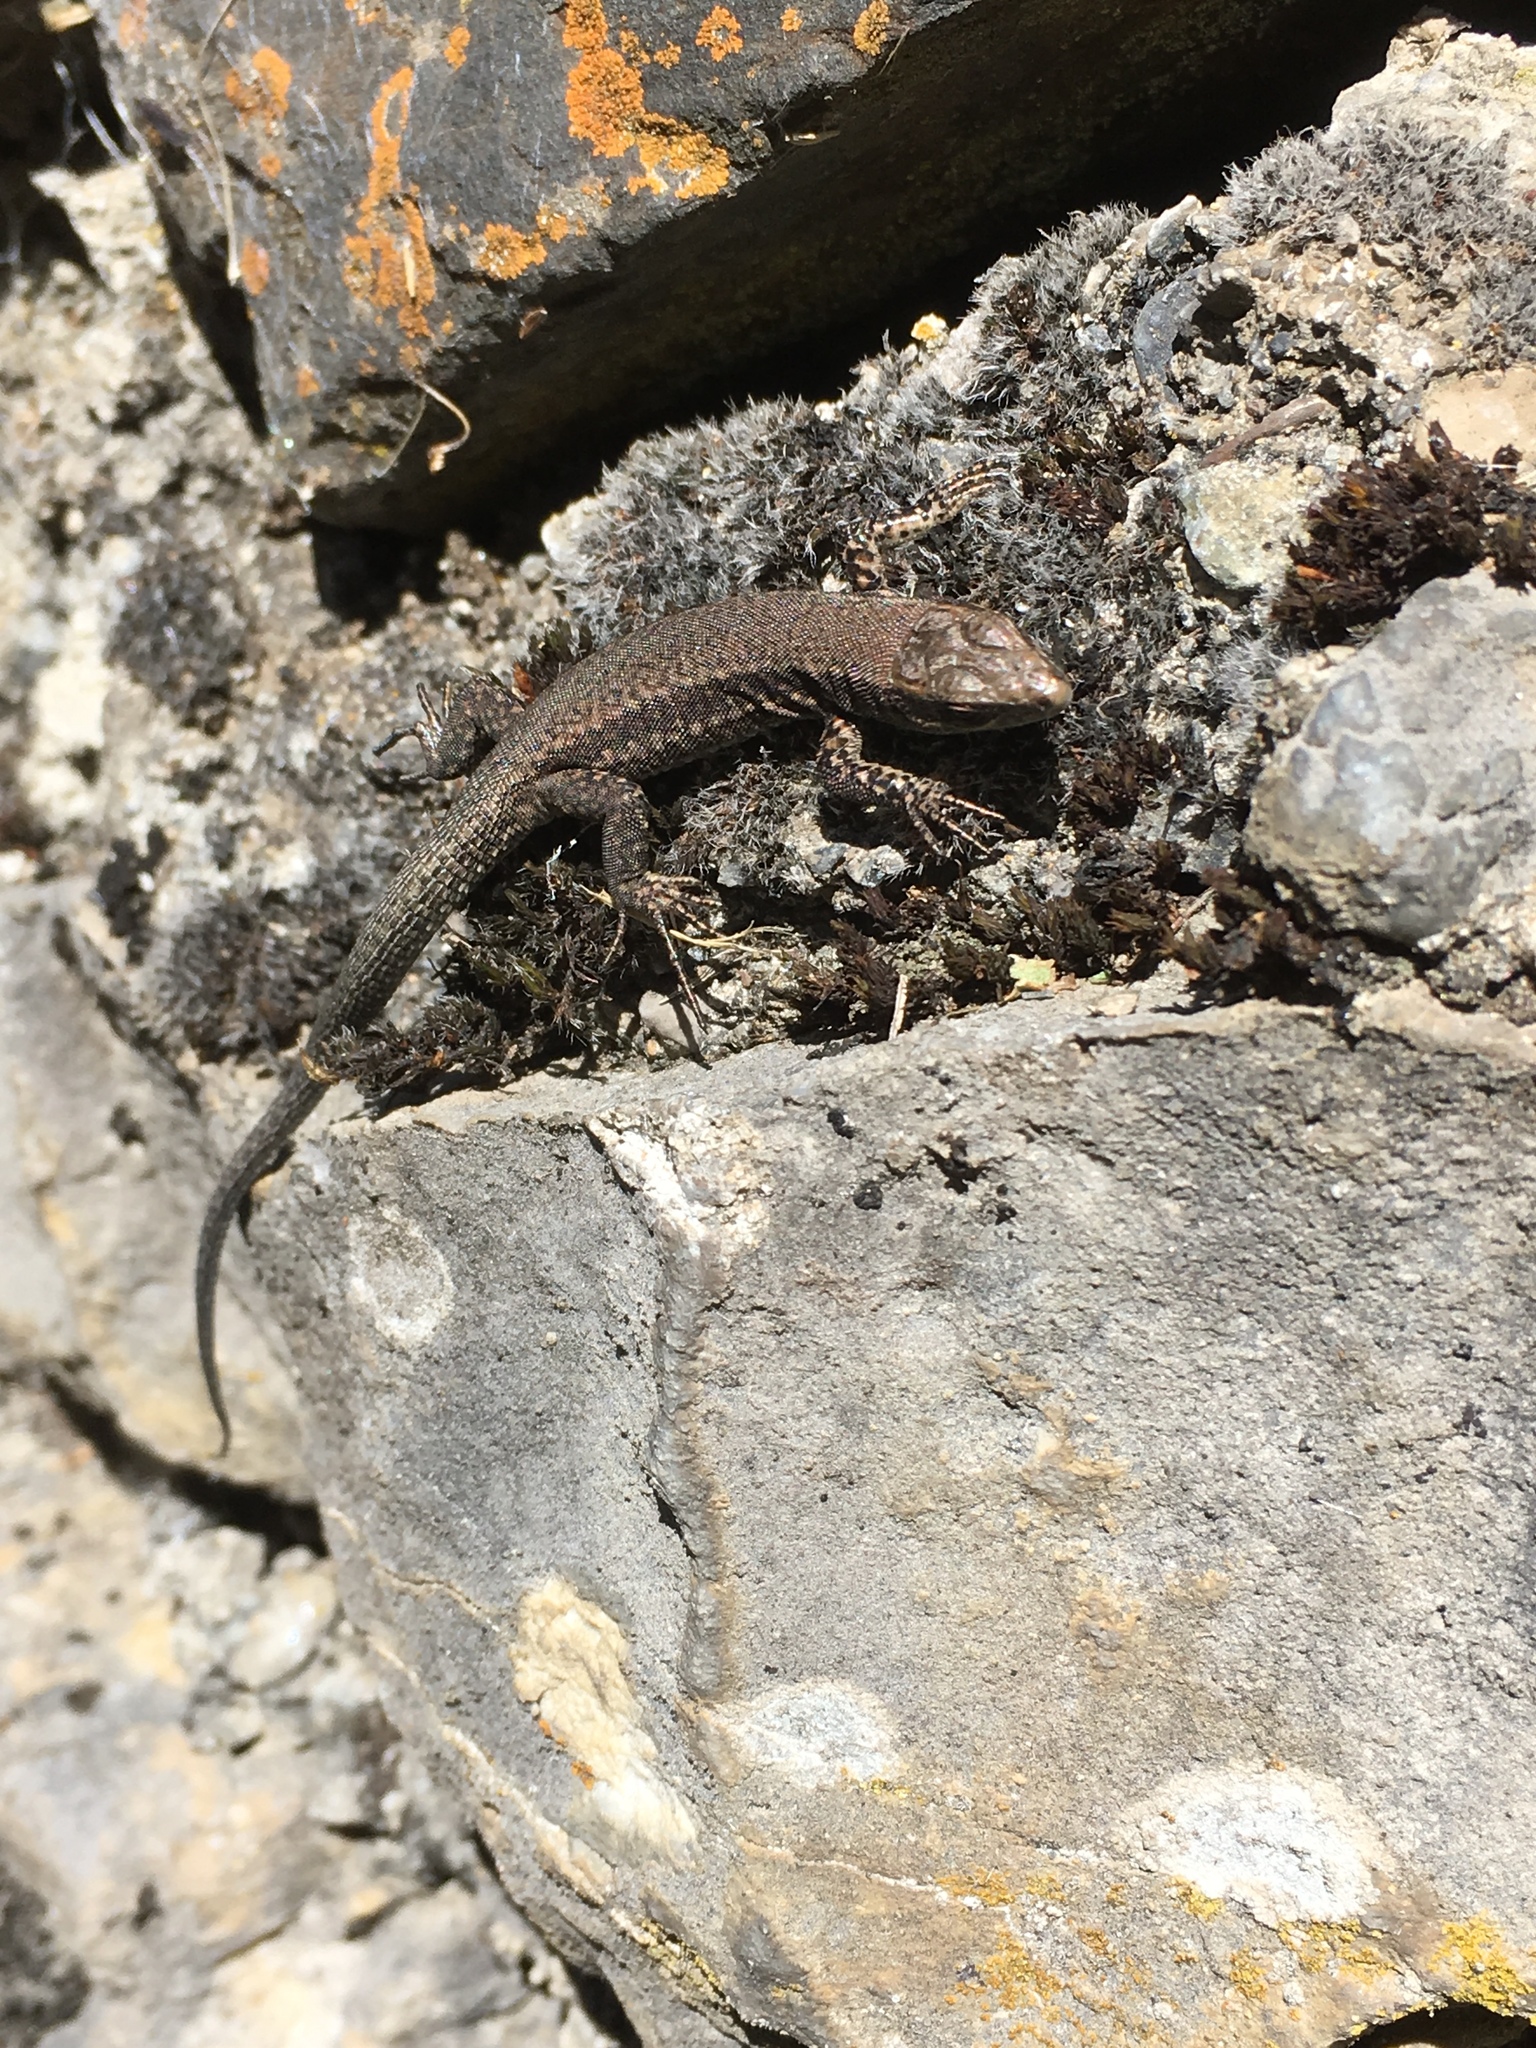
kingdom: Animalia
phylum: Chordata
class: Squamata
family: Lacertidae
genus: Podarcis
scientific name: Podarcis muralis
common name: Common wall lizard
